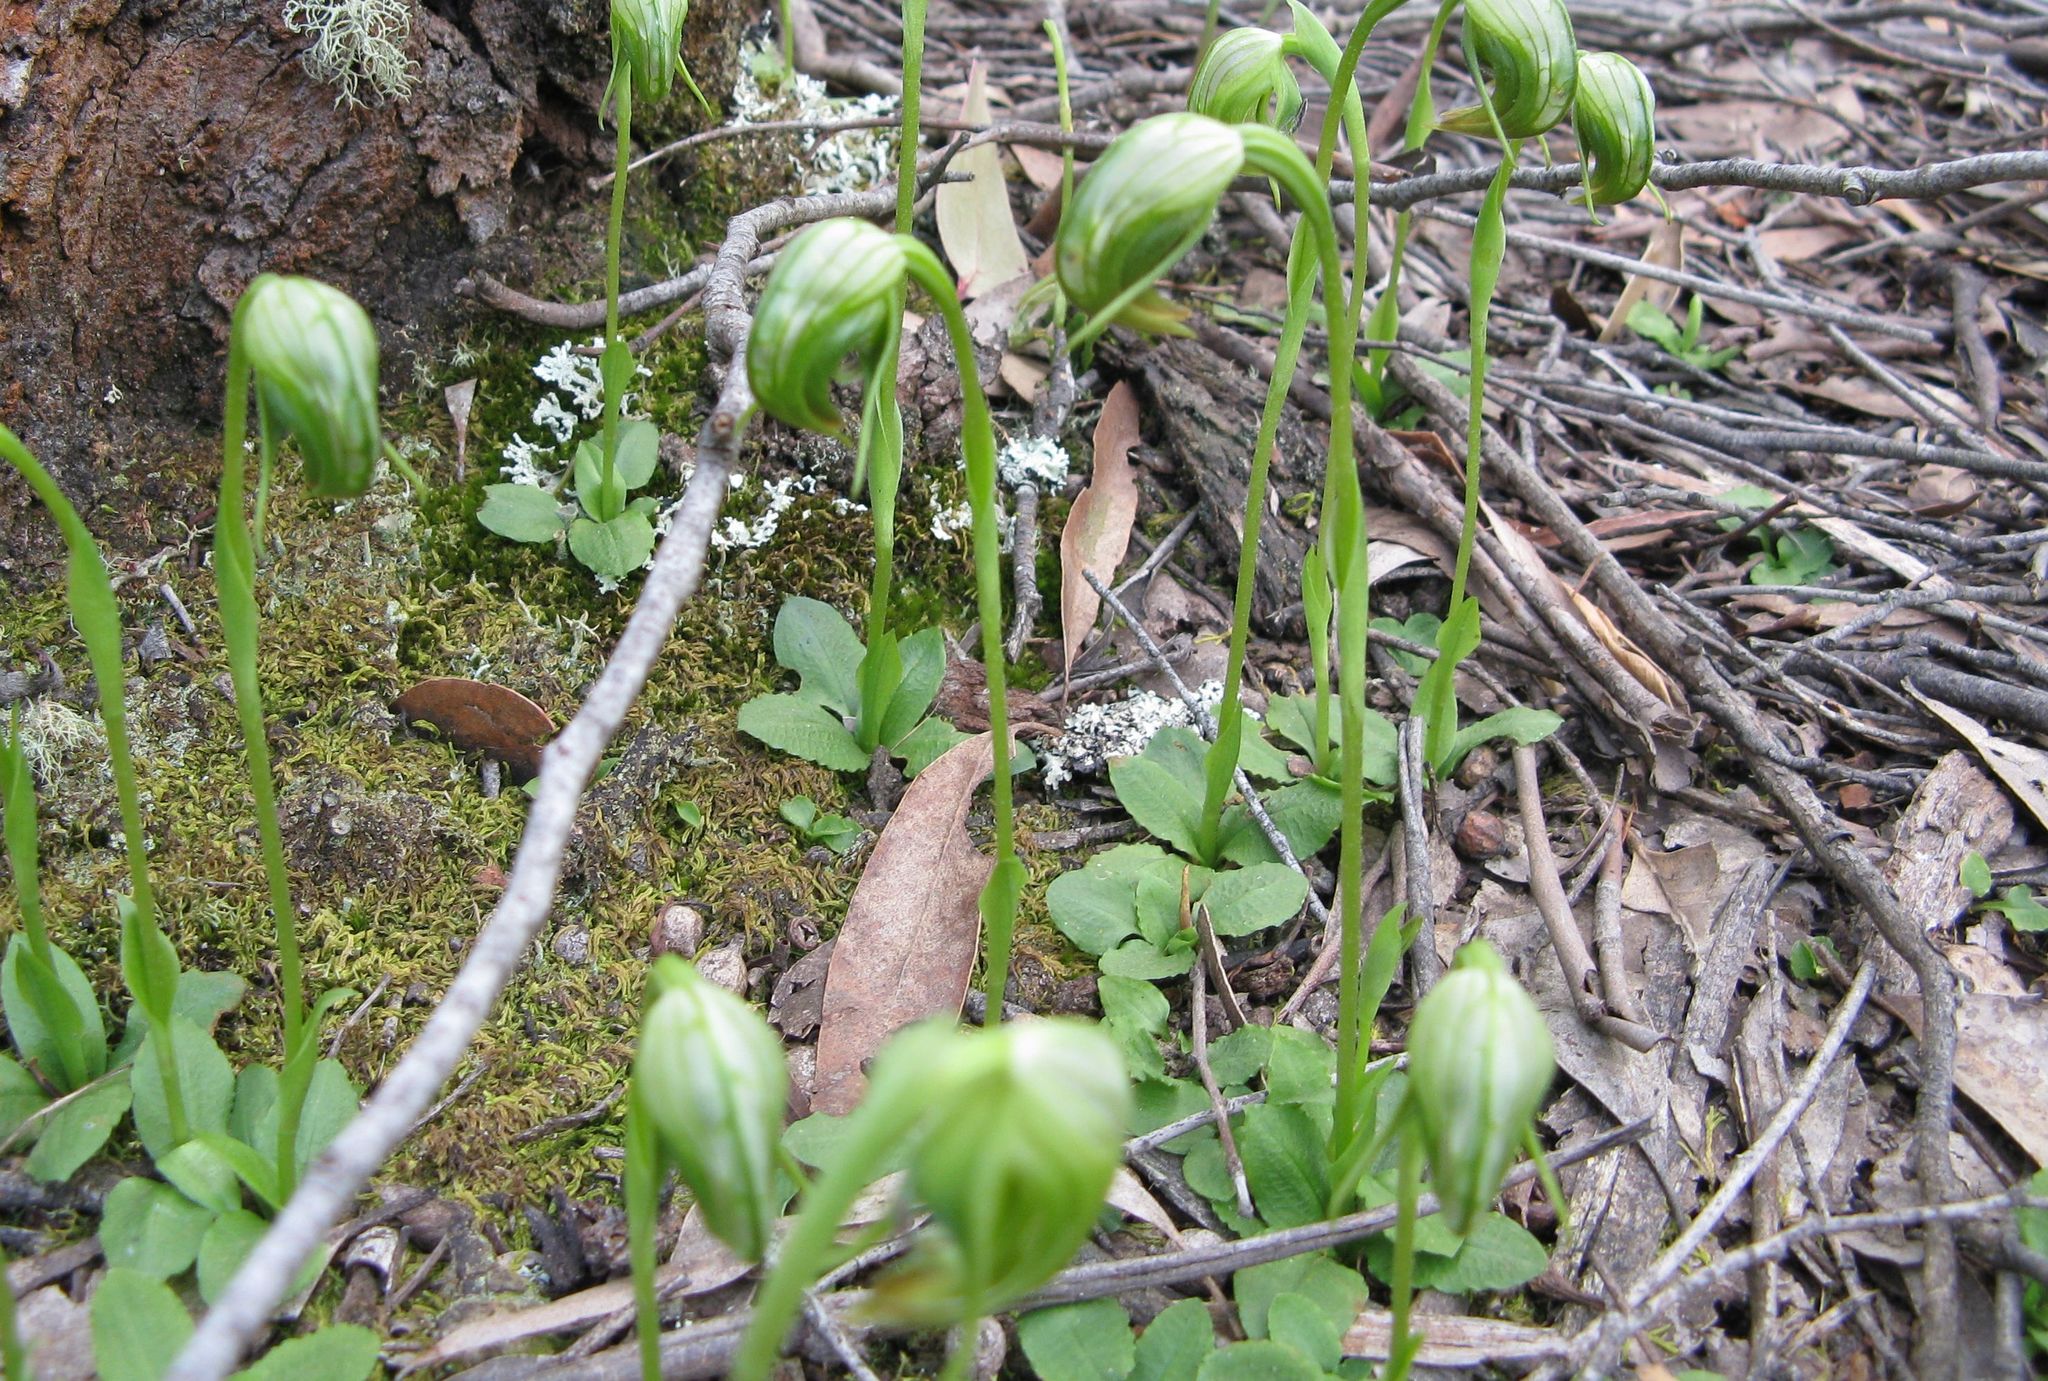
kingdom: Plantae
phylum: Tracheophyta
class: Liliopsida
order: Asparagales
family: Orchidaceae
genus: Pterostylis
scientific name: Pterostylis nutans
